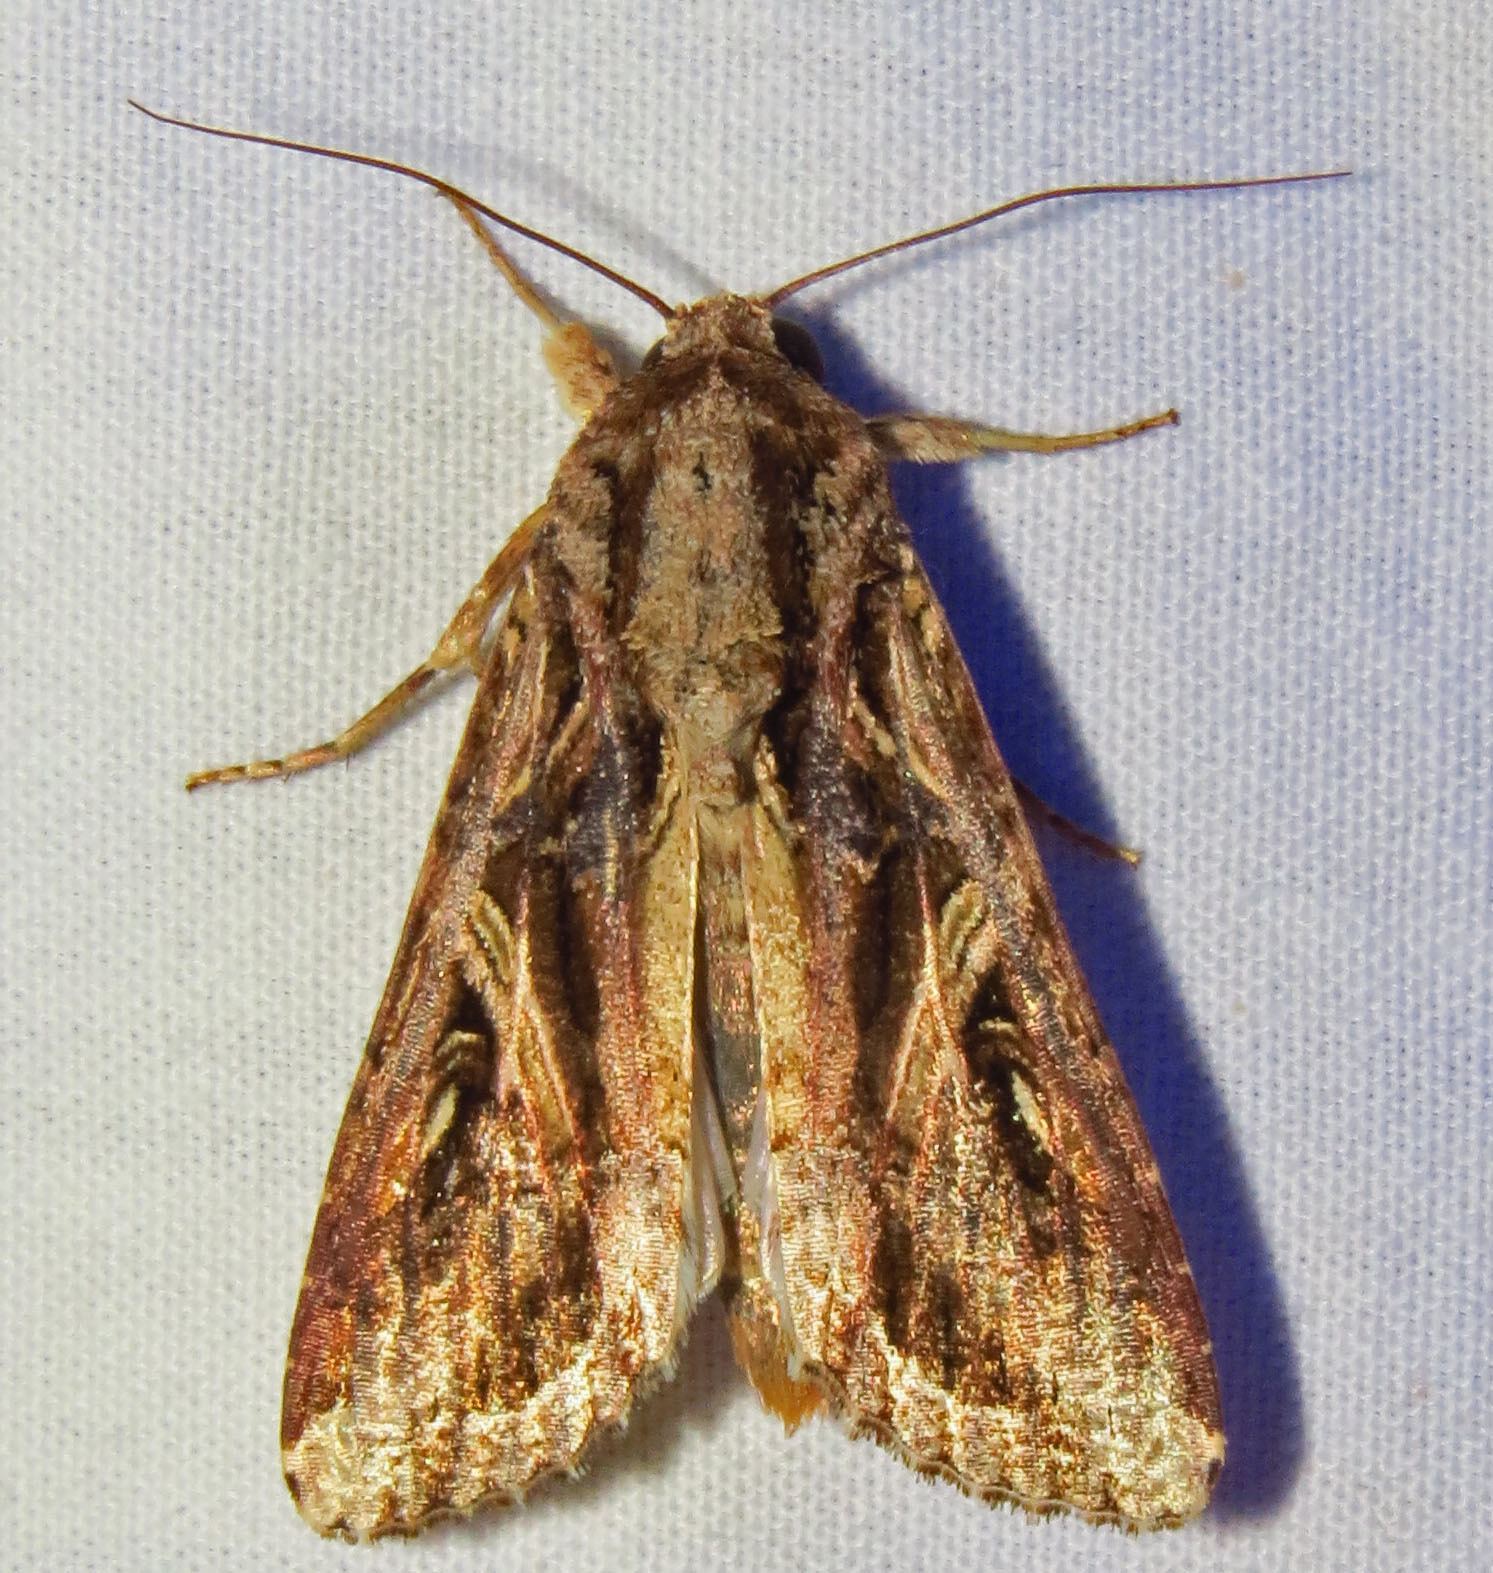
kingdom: Animalia
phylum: Arthropoda
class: Insecta
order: Lepidoptera
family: Noctuidae
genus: Spodoptera
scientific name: Spodoptera dolichos
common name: Sweetpotato armyworm
